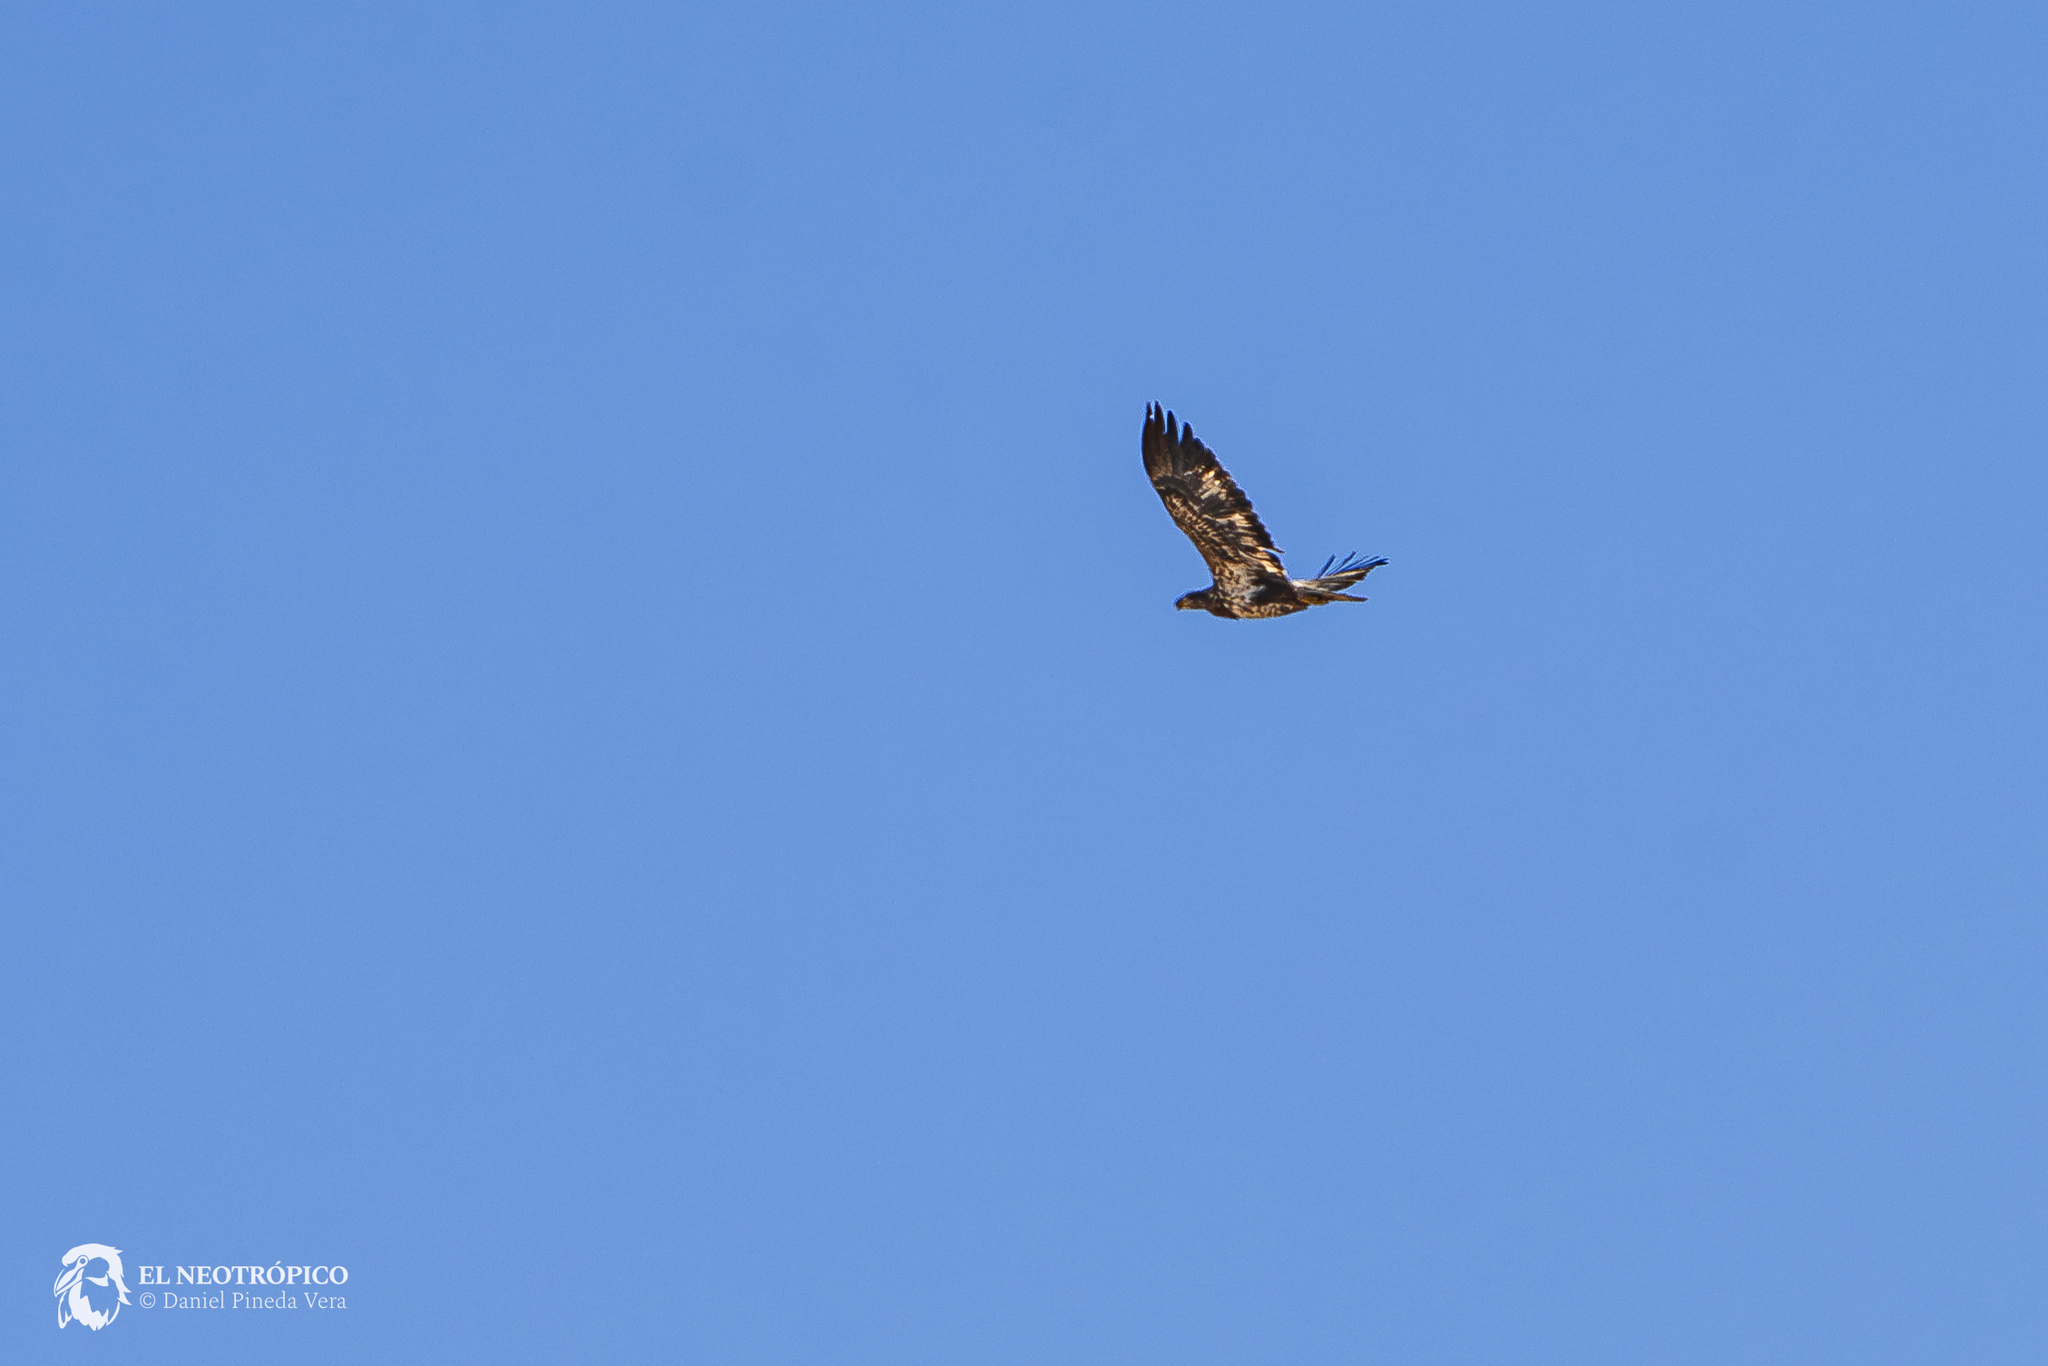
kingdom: Animalia
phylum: Chordata
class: Aves
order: Accipitriformes
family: Accipitridae
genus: Haliaeetus
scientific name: Haliaeetus leucocephalus
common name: Bald eagle
